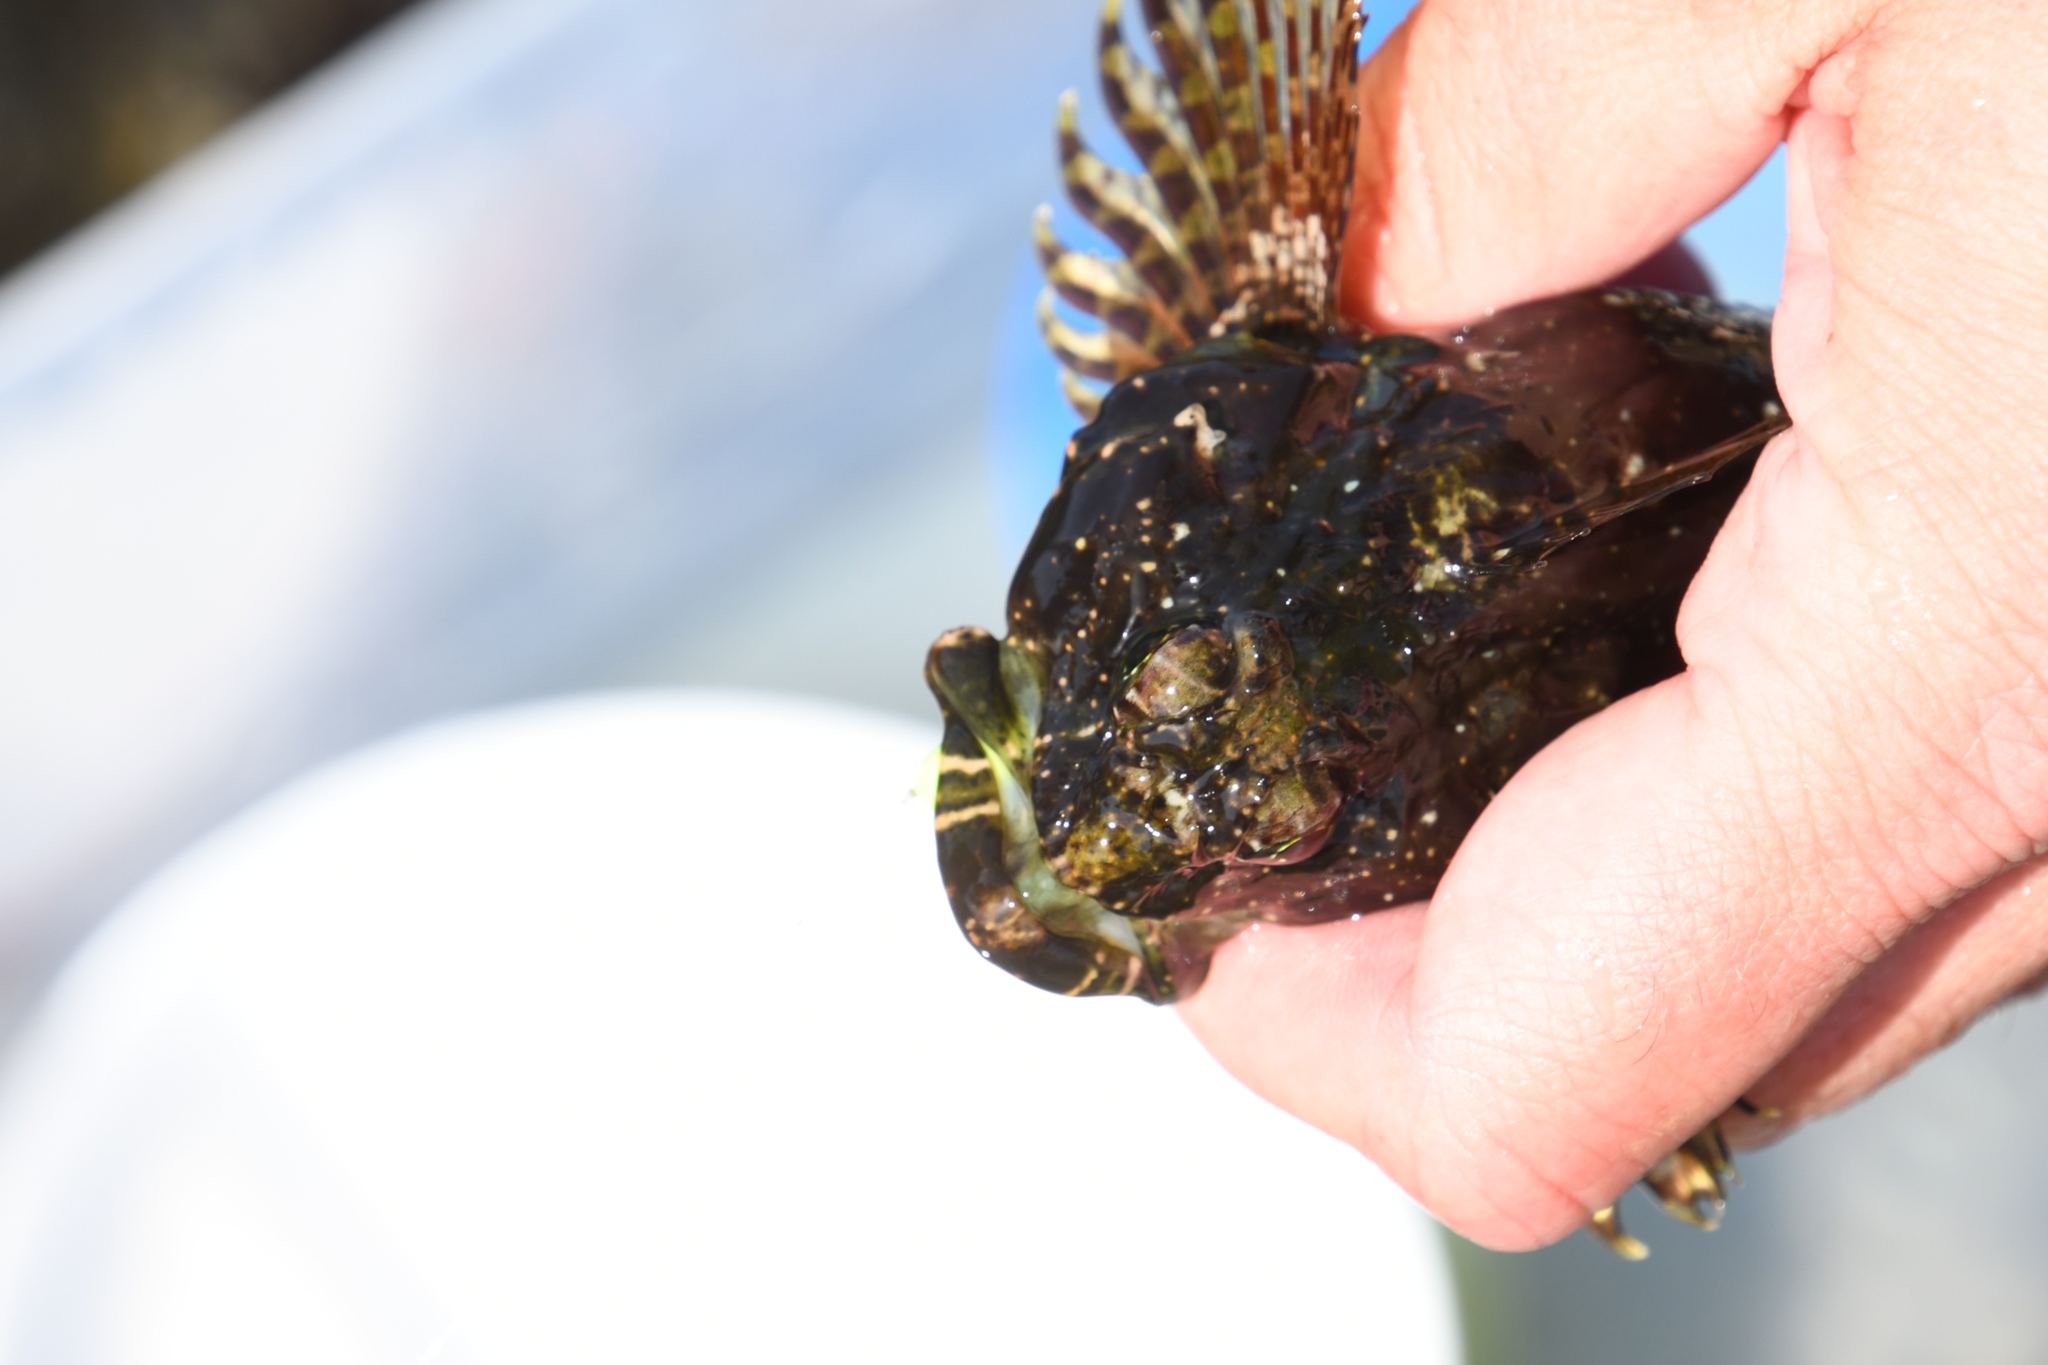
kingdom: Animalia
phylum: Chordata
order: Scorpaeniformes
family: Cottidae
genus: Clinocottus
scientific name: Clinocottus analis
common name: Woolly sculpin
